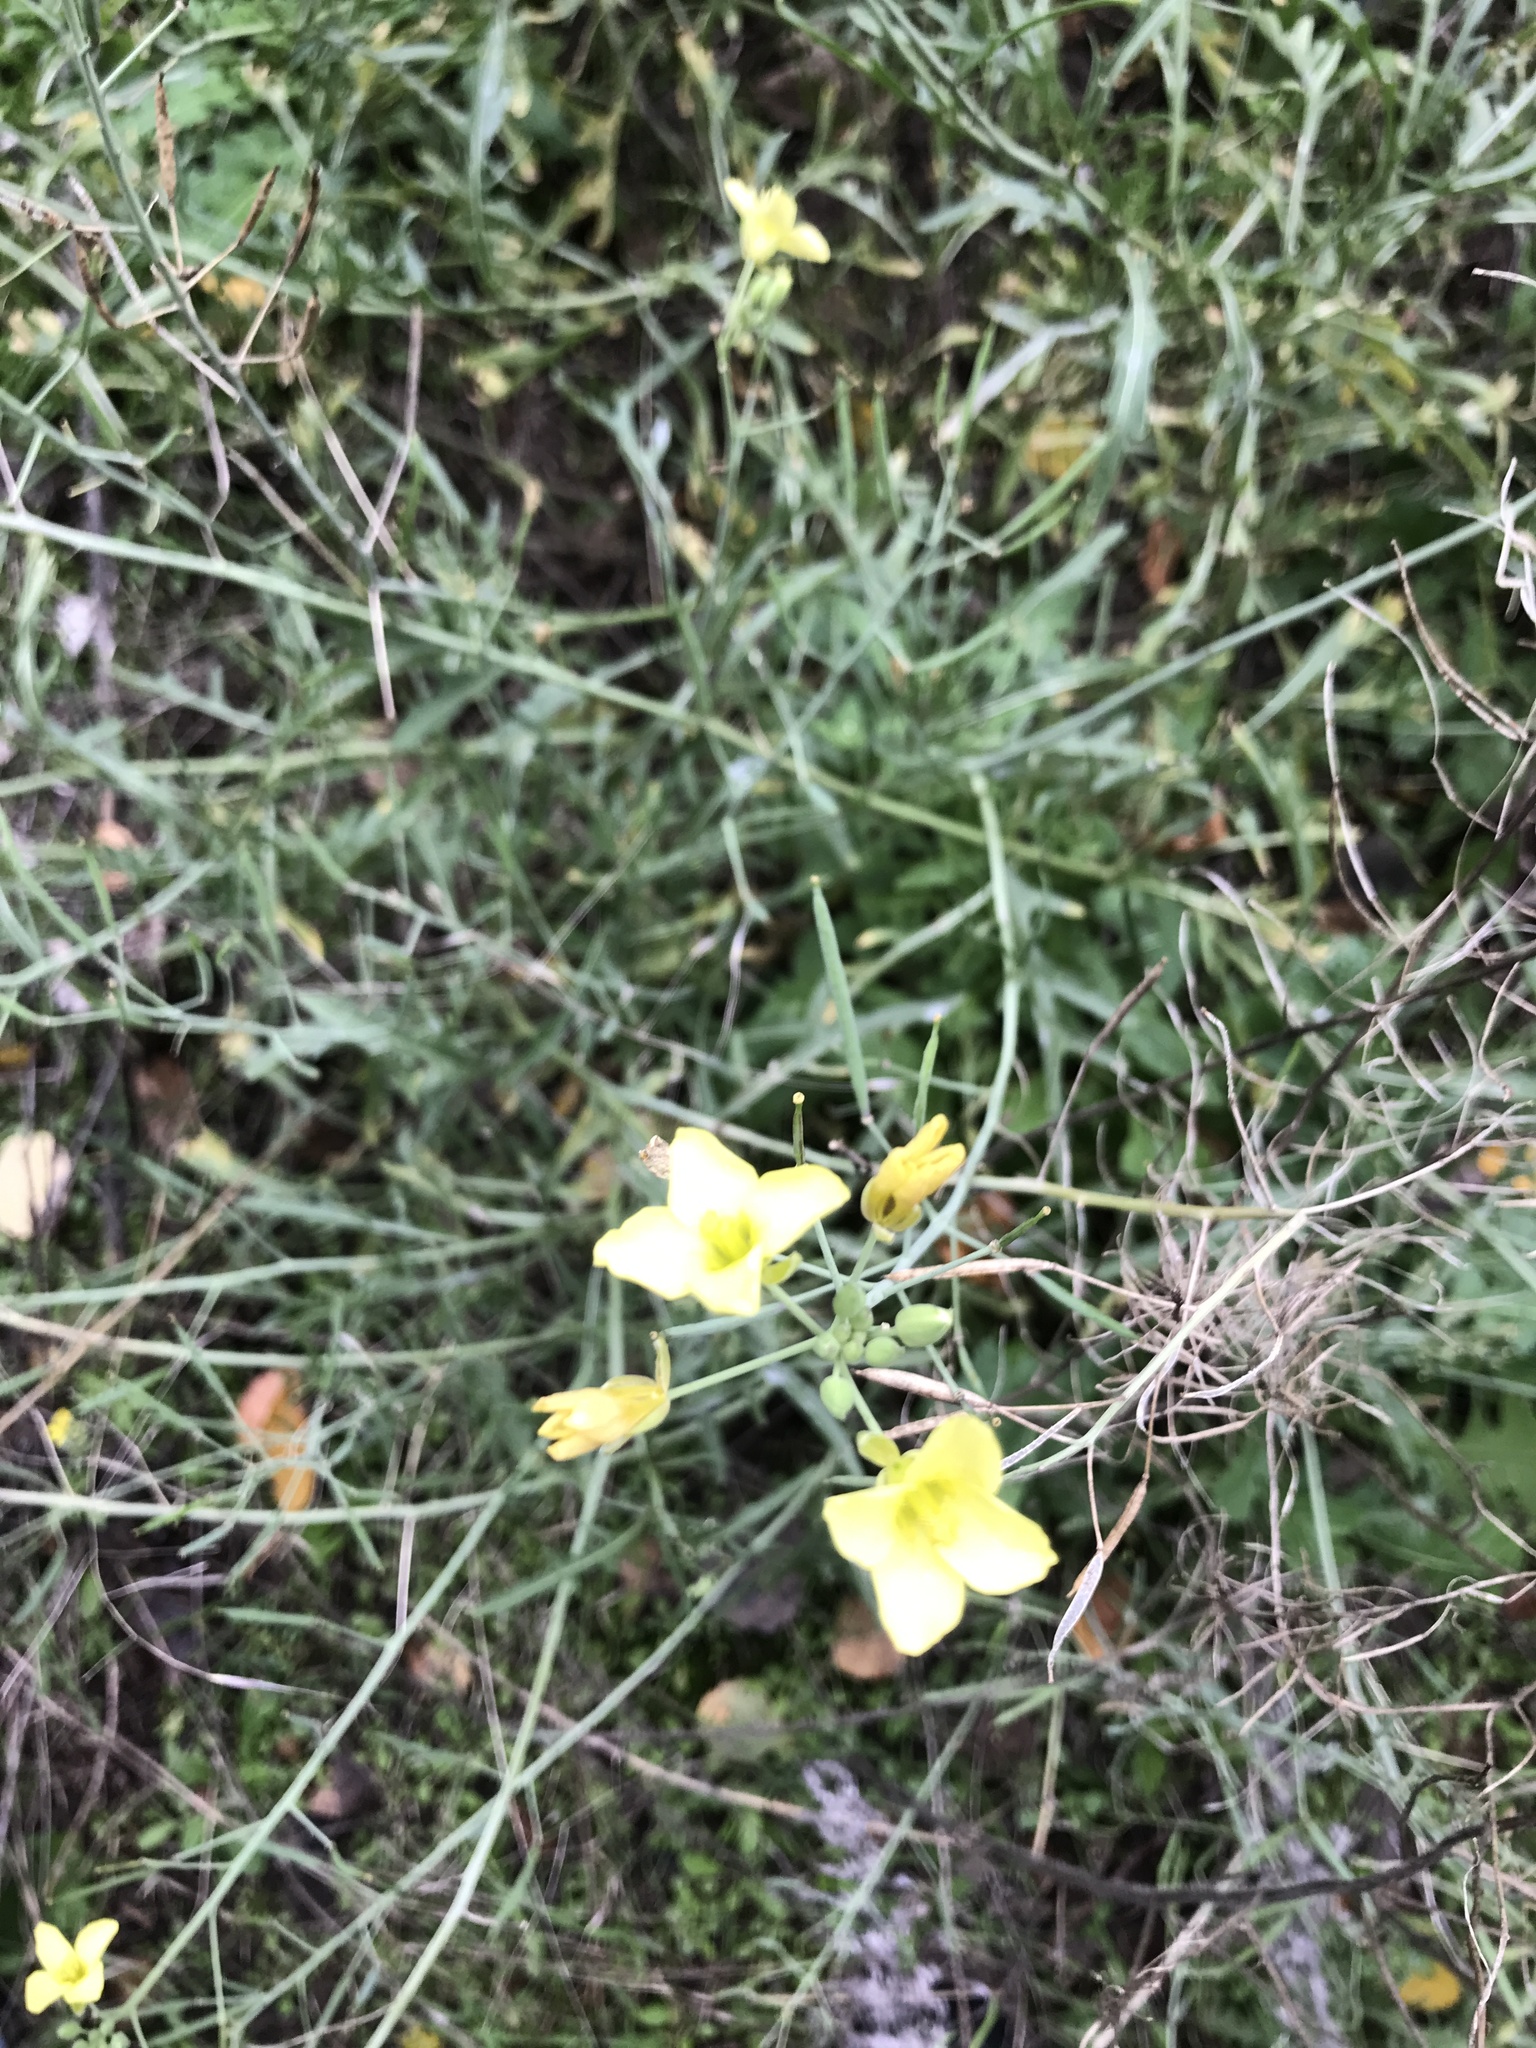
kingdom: Plantae
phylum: Tracheophyta
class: Magnoliopsida
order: Brassicales
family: Brassicaceae
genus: Diplotaxis
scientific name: Diplotaxis tenuifolia
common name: Perennial wall-rocket
